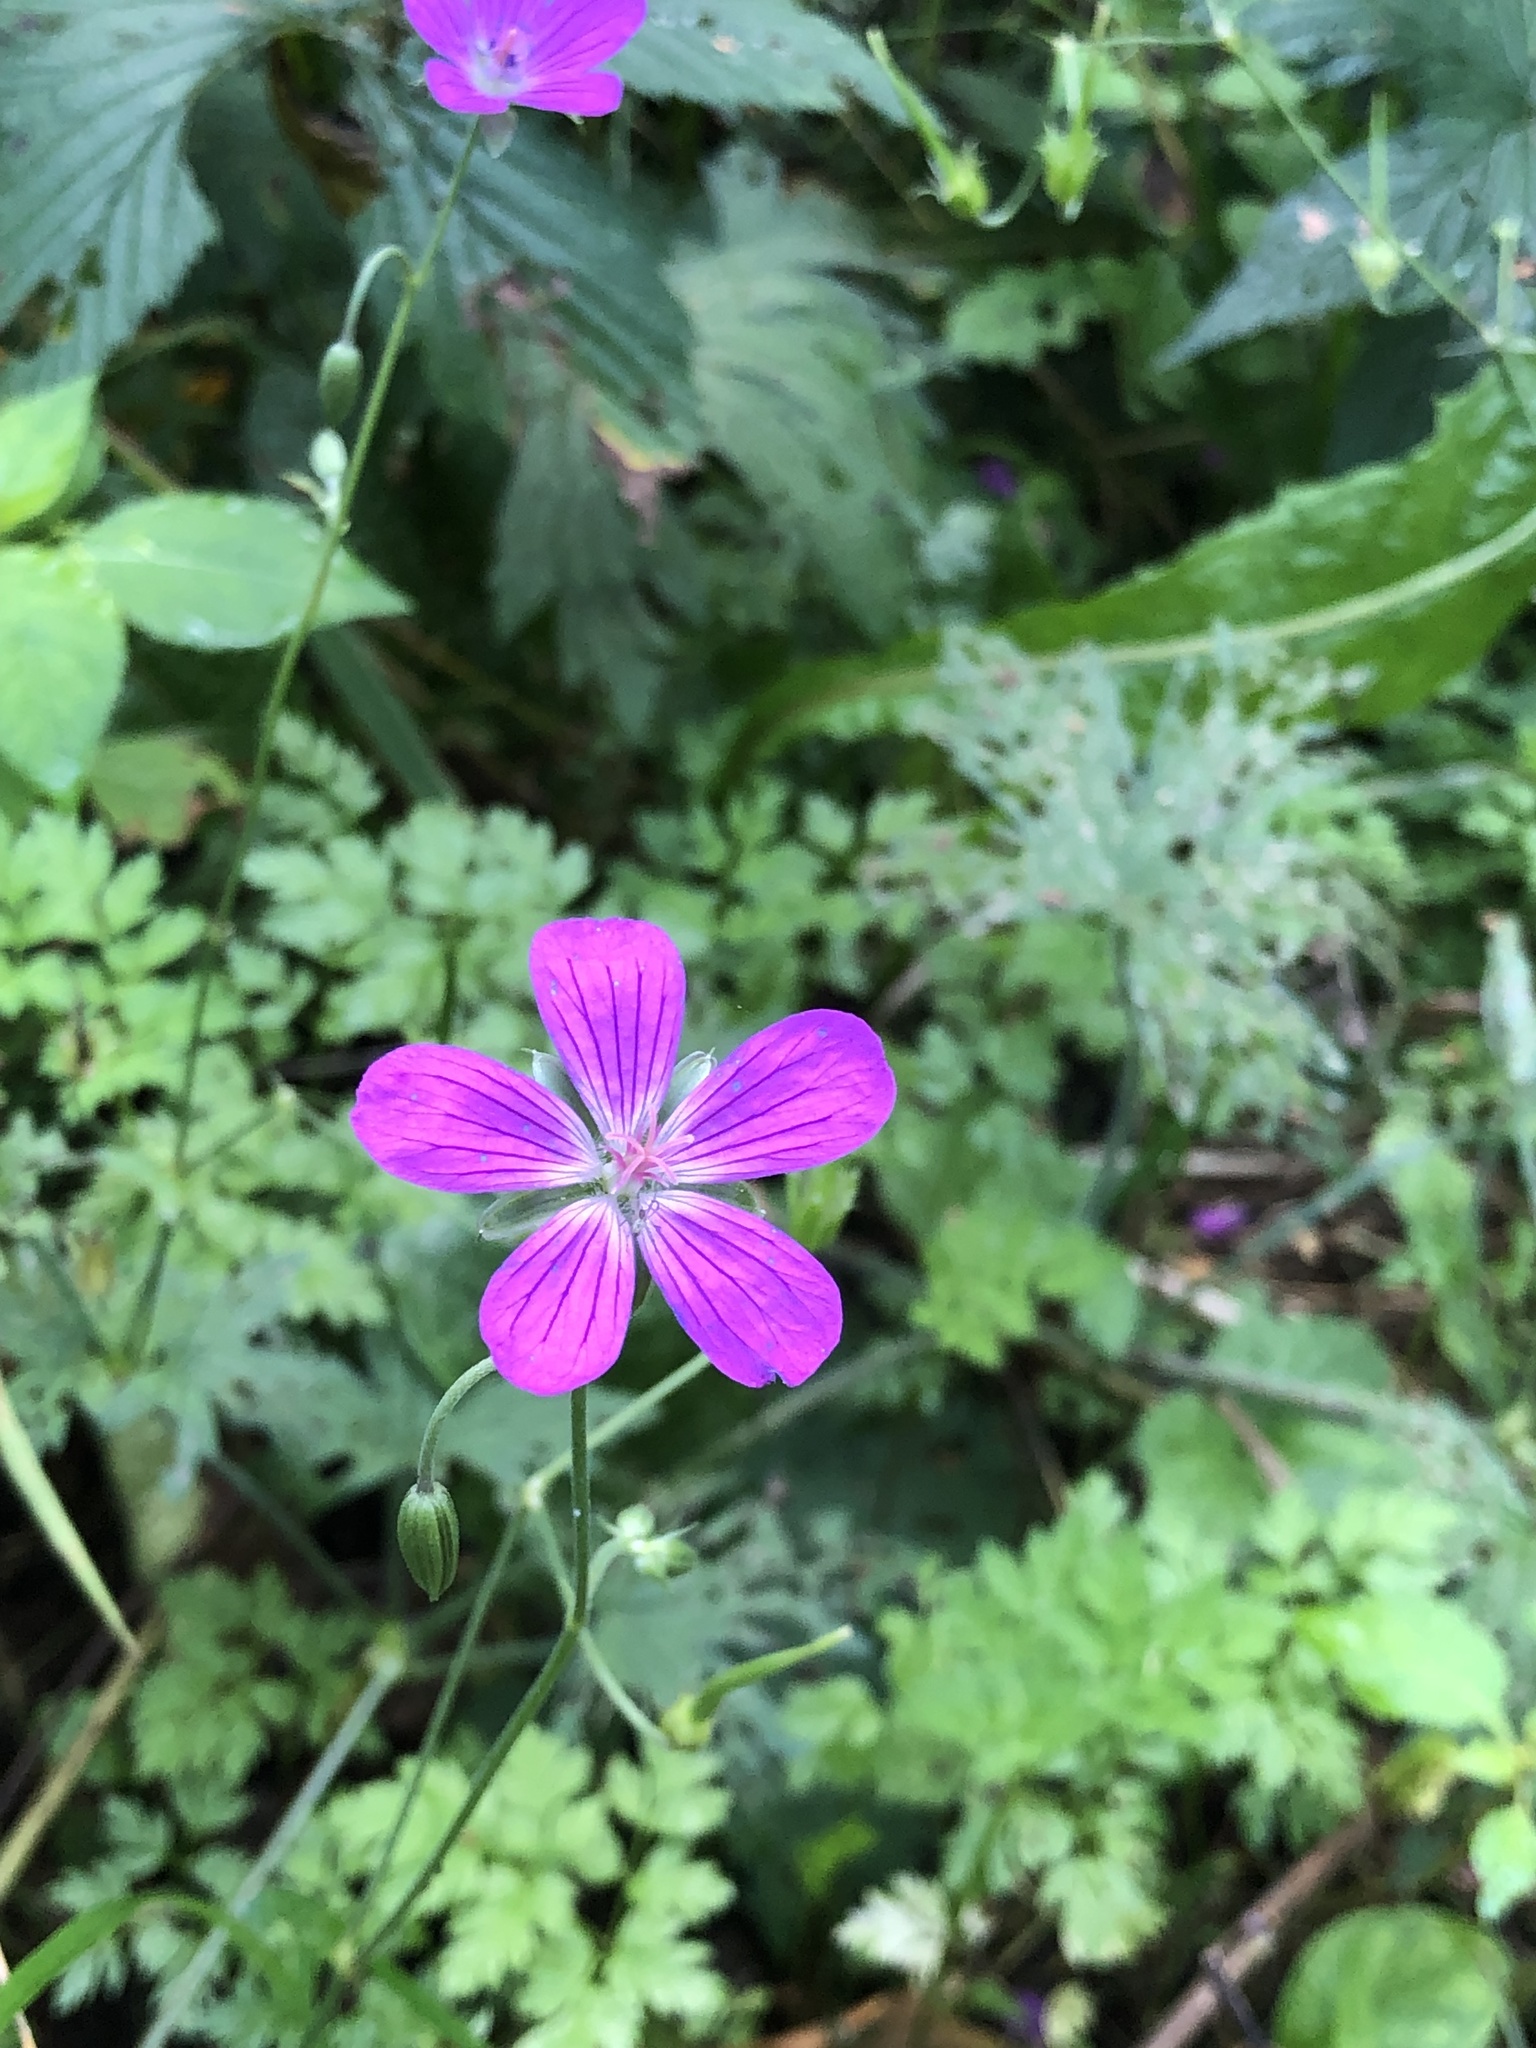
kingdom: Plantae
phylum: Tracheophyta
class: Magnoliopsida
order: Geraniales
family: Geraniaceae
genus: Geranium
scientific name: Geranium palustre
